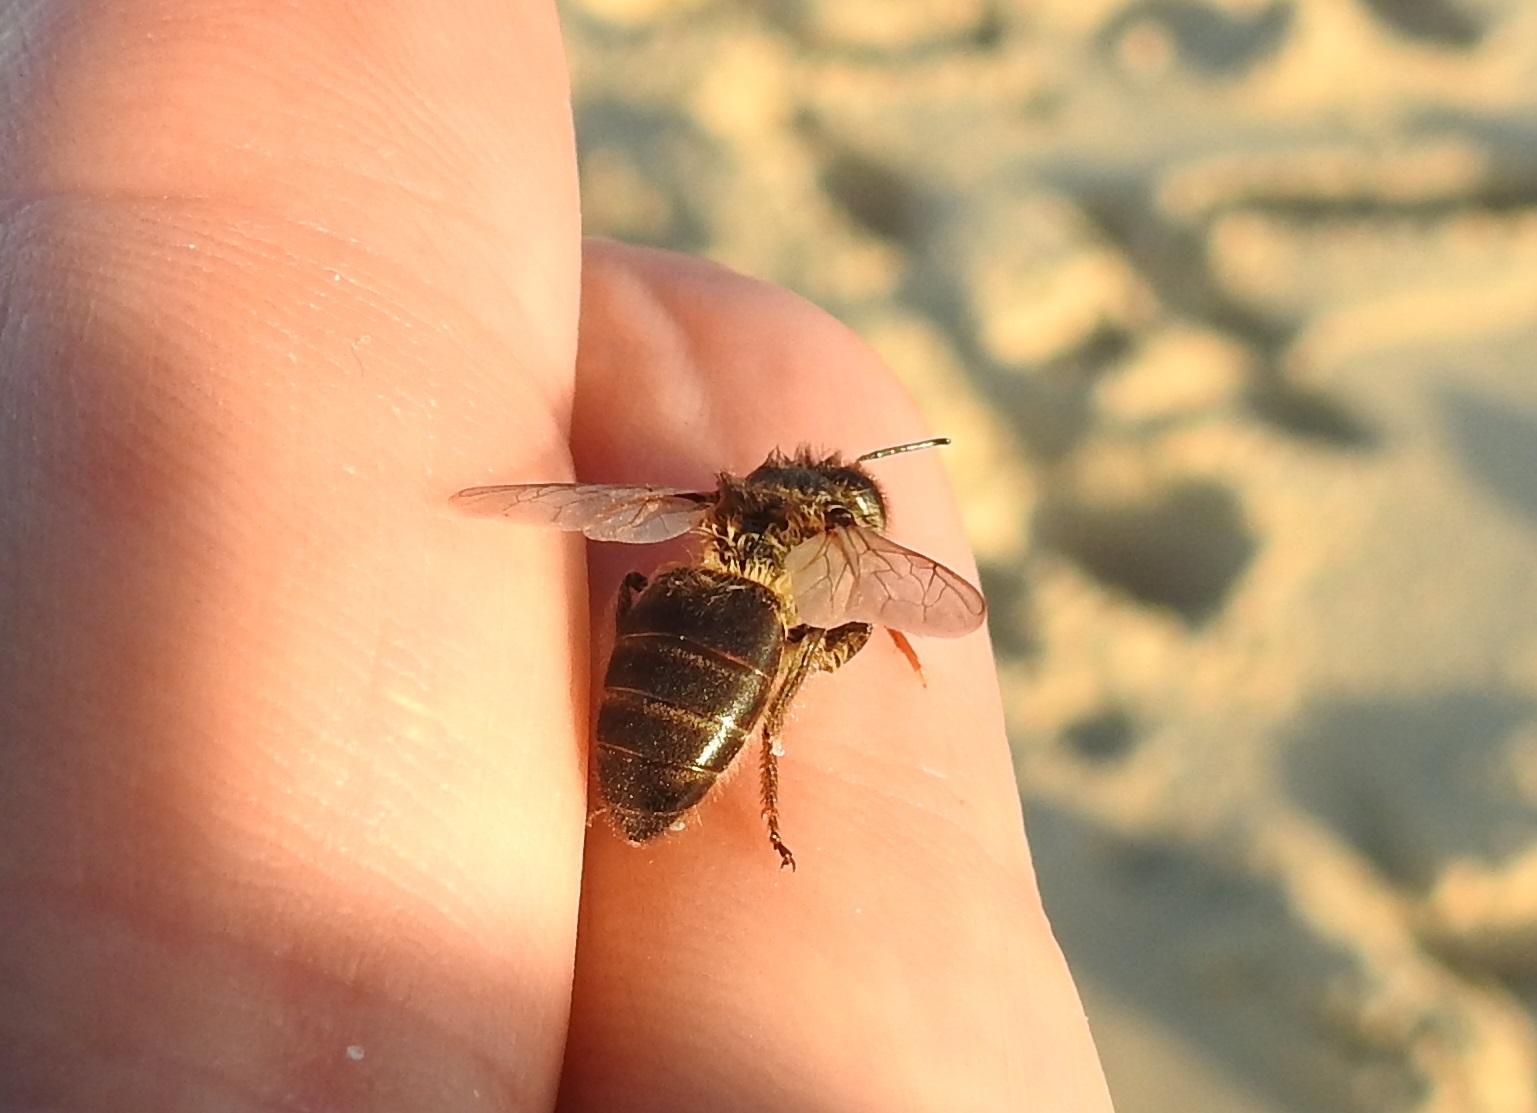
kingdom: Animalia
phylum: Arthropoda
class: Insecta
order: Hymenoptera
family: Apidae
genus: Apis
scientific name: Apis mellifera
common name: Honey bee
